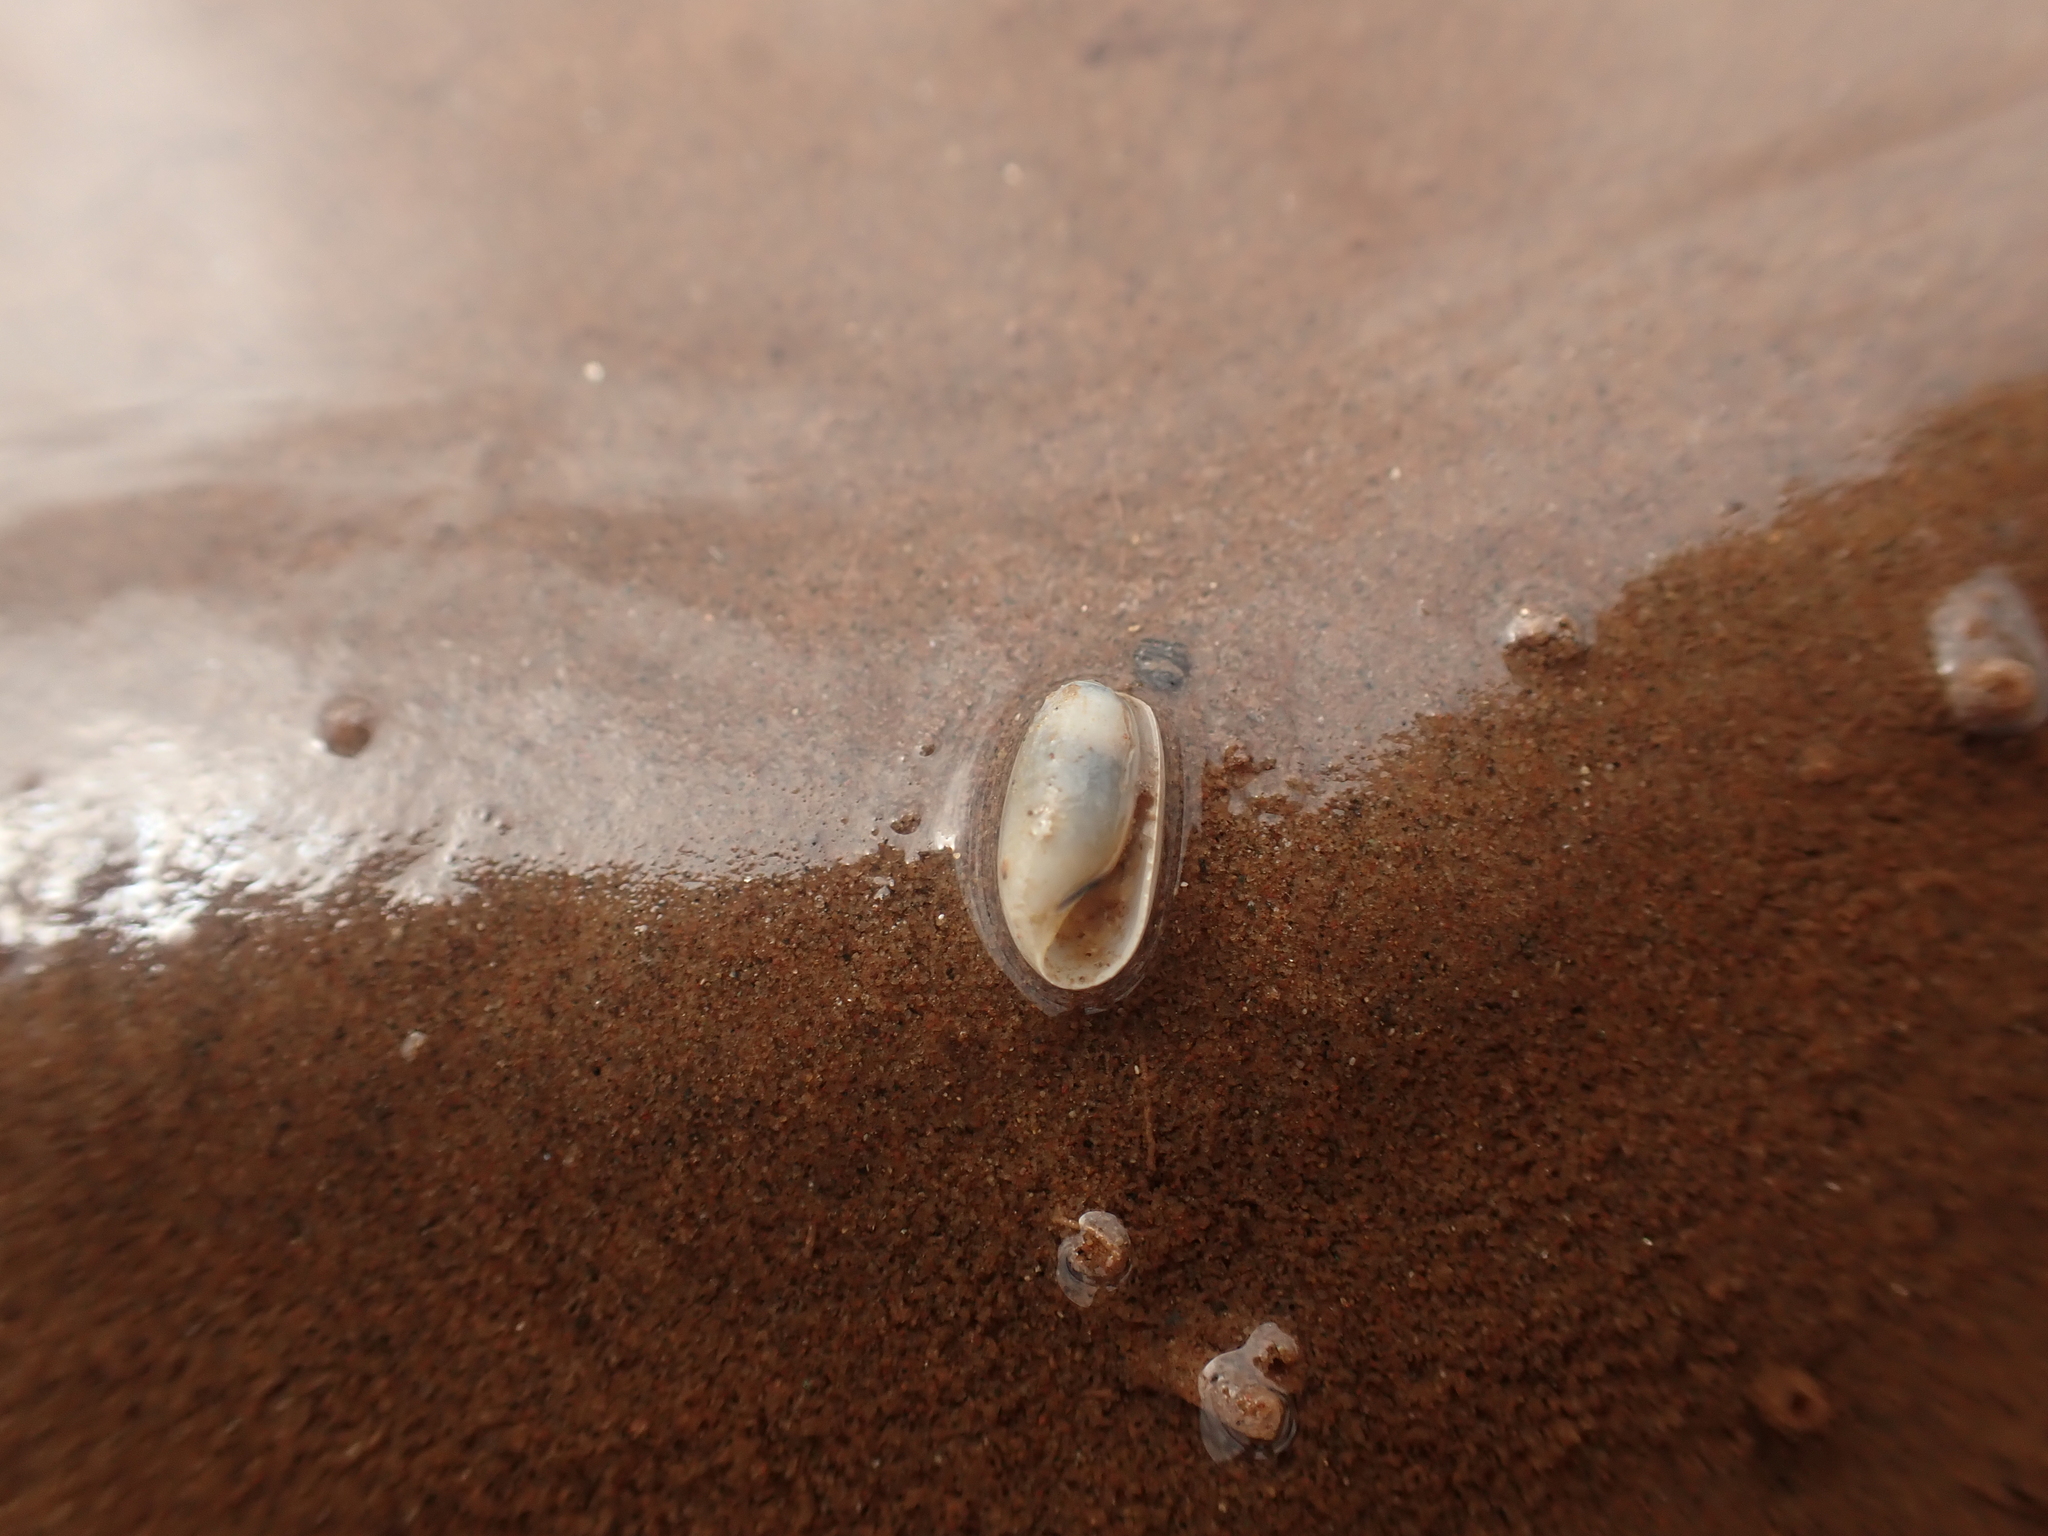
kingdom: Animalia
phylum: Mollusca
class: Gastropoda
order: Cephalaspidea
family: Cylichnidae
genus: Cylichna
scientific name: Cylichna alba
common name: White chalice-bubble
